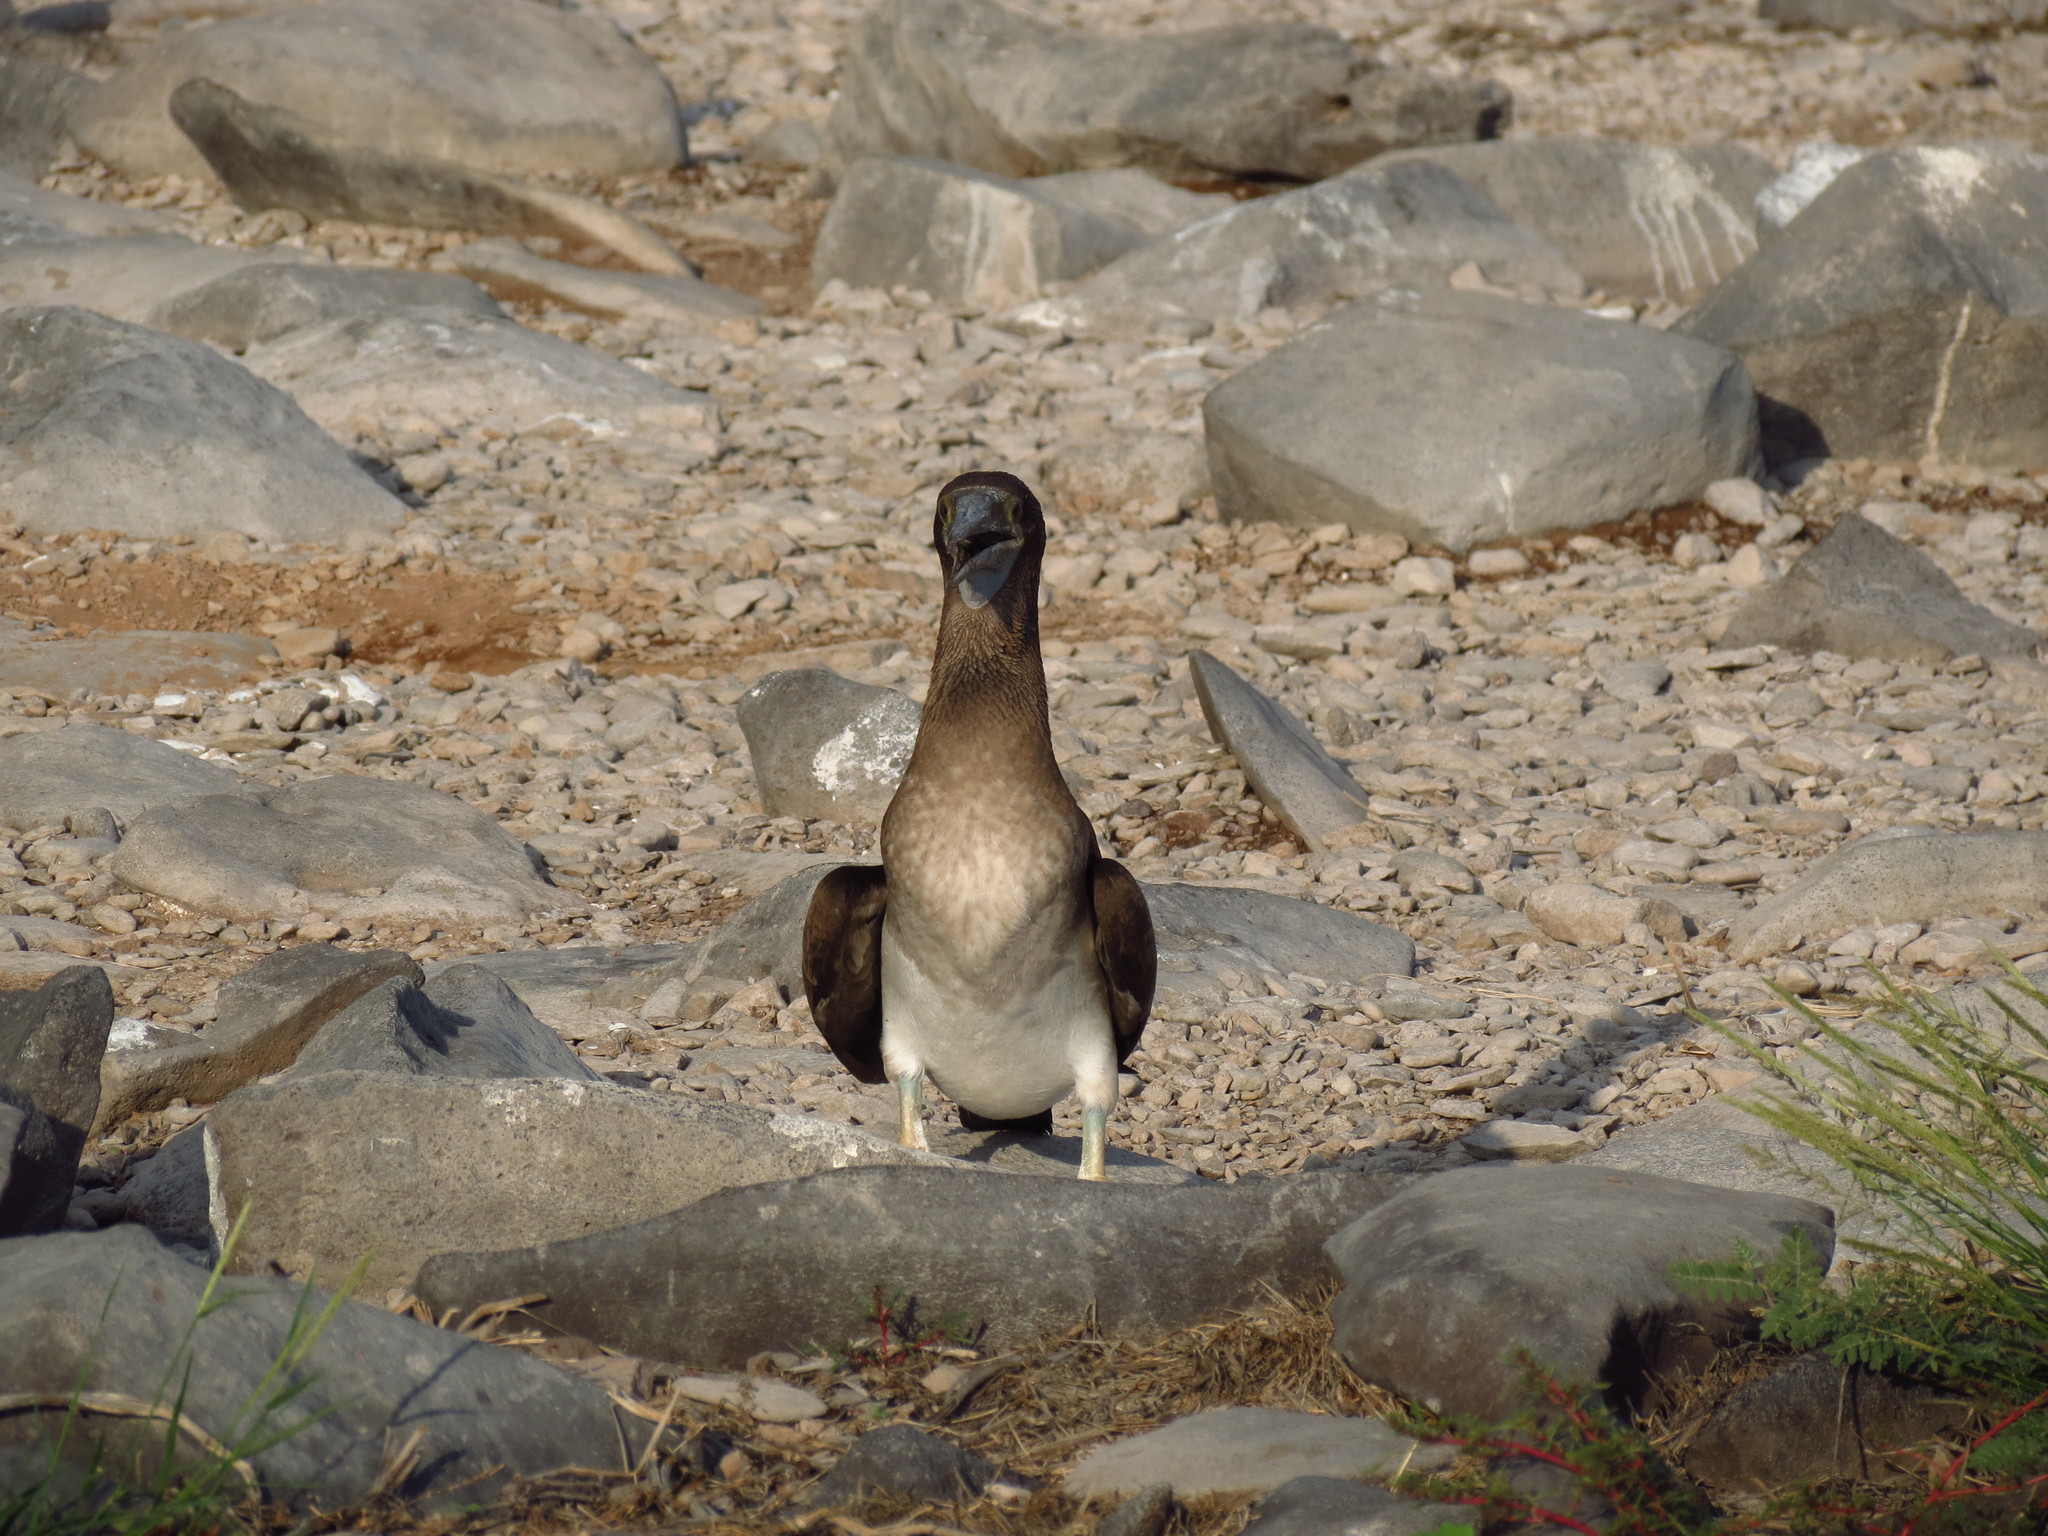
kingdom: Animalia
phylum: Chordata
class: Aves
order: Suliformes
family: Sulidae
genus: Sula
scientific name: Sula nebouxii
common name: Blue-footed booby
